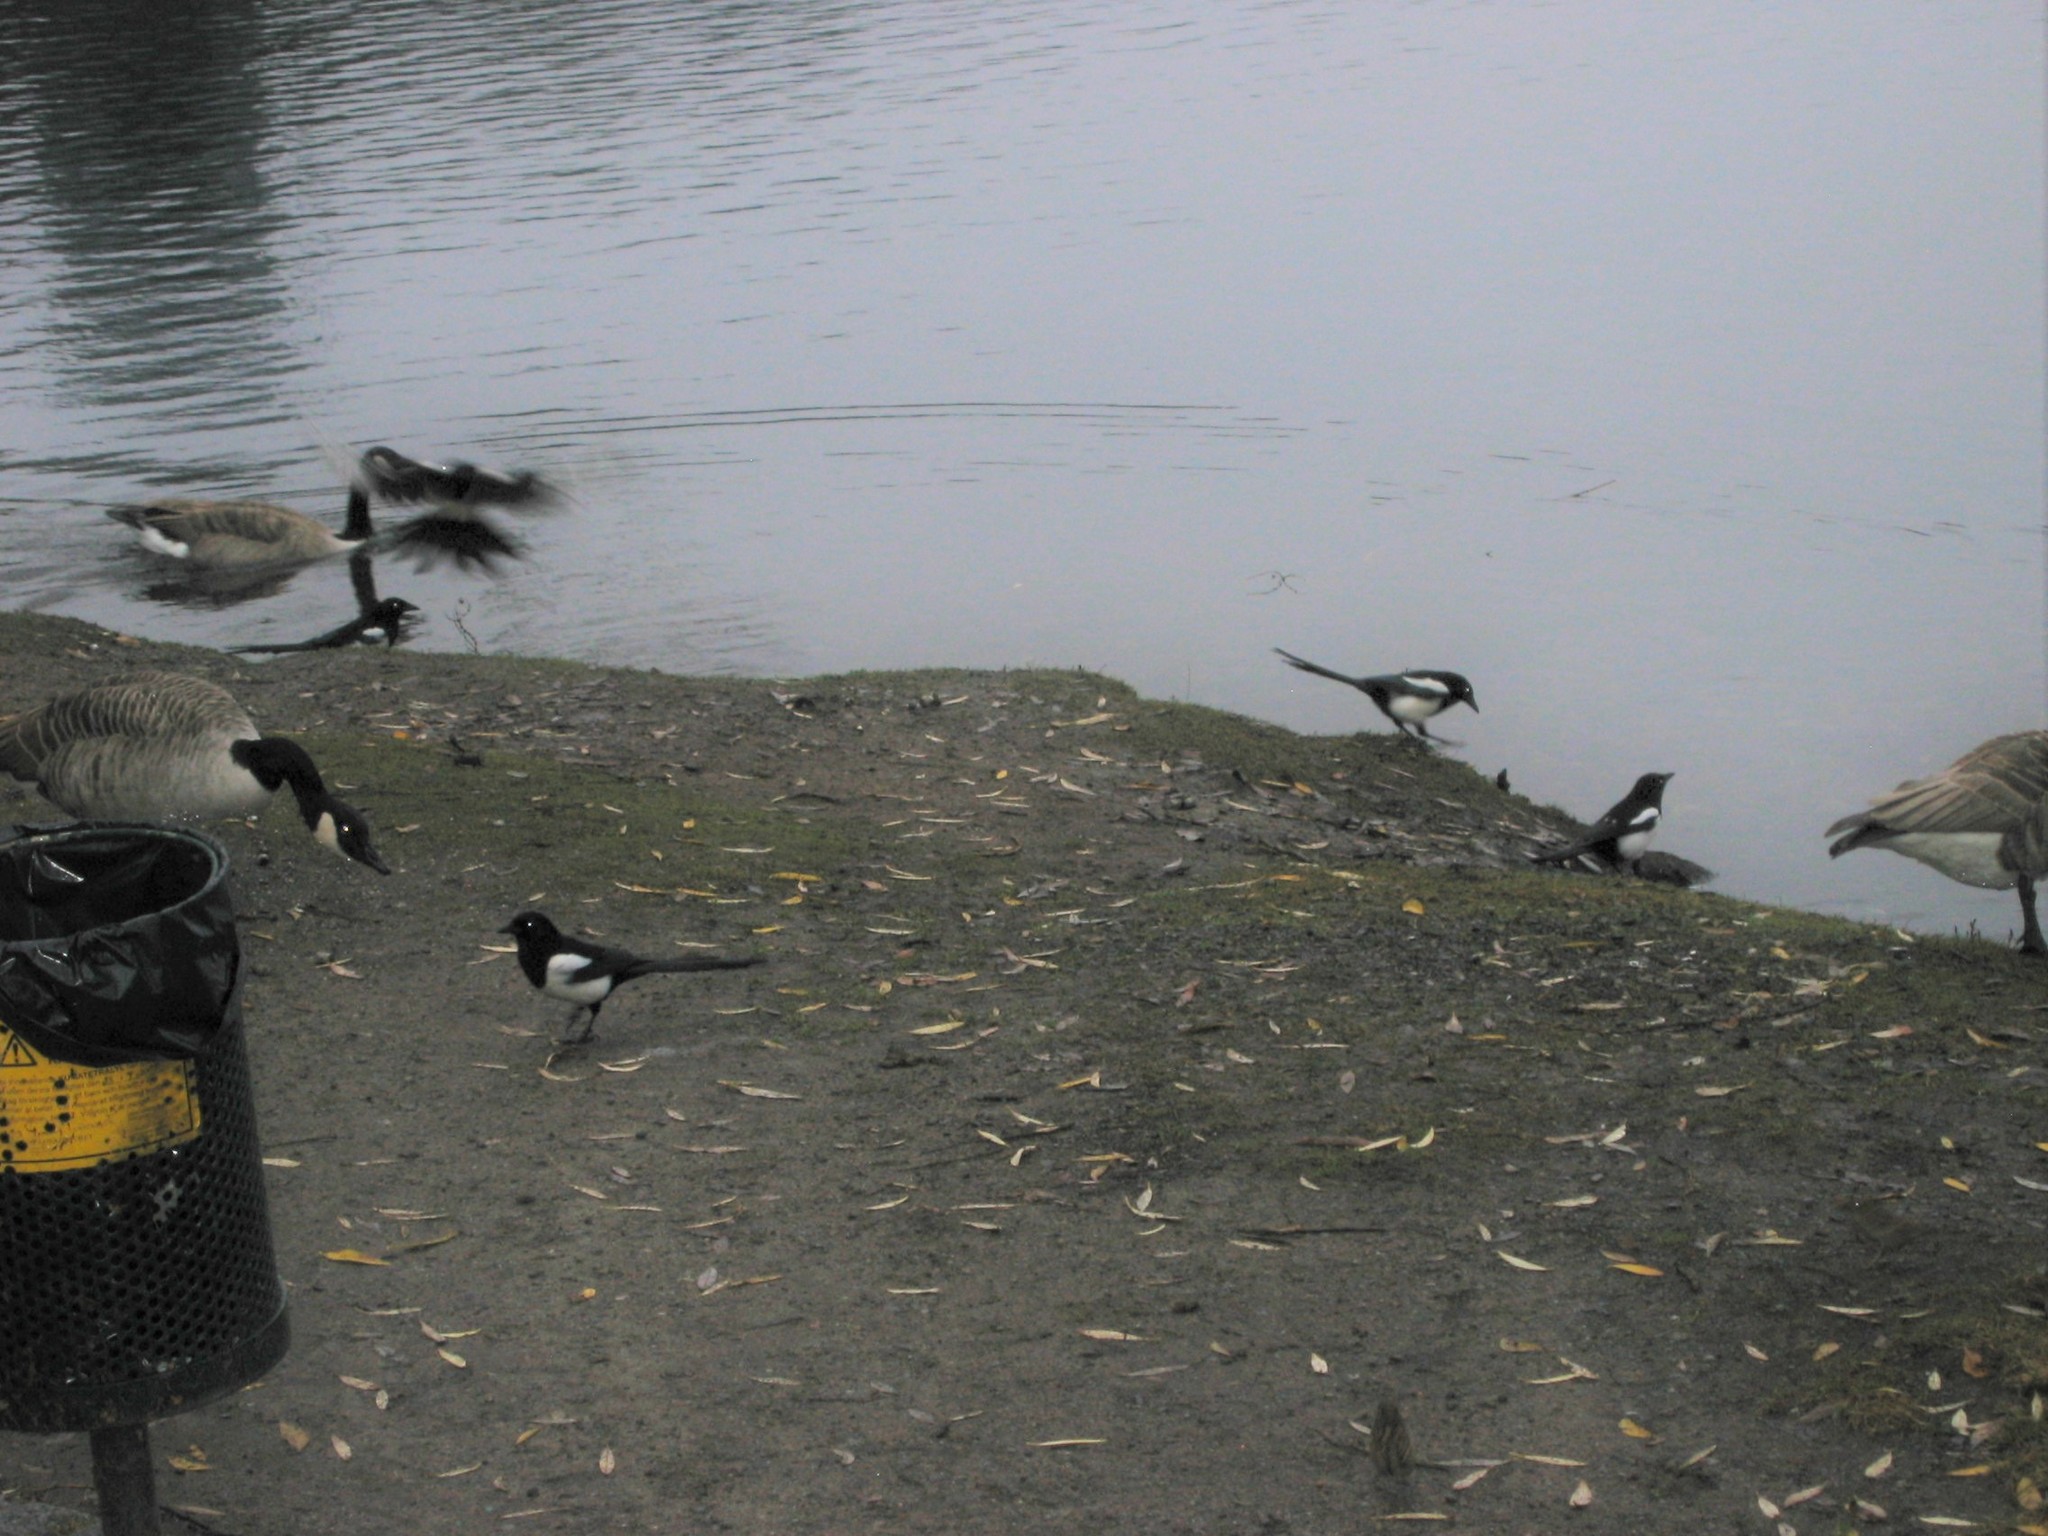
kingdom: Animalia
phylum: Chordata
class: Aves
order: Passeriformes
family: Corvidae
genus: Pica
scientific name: Pica pica
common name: Eurasian magpie
